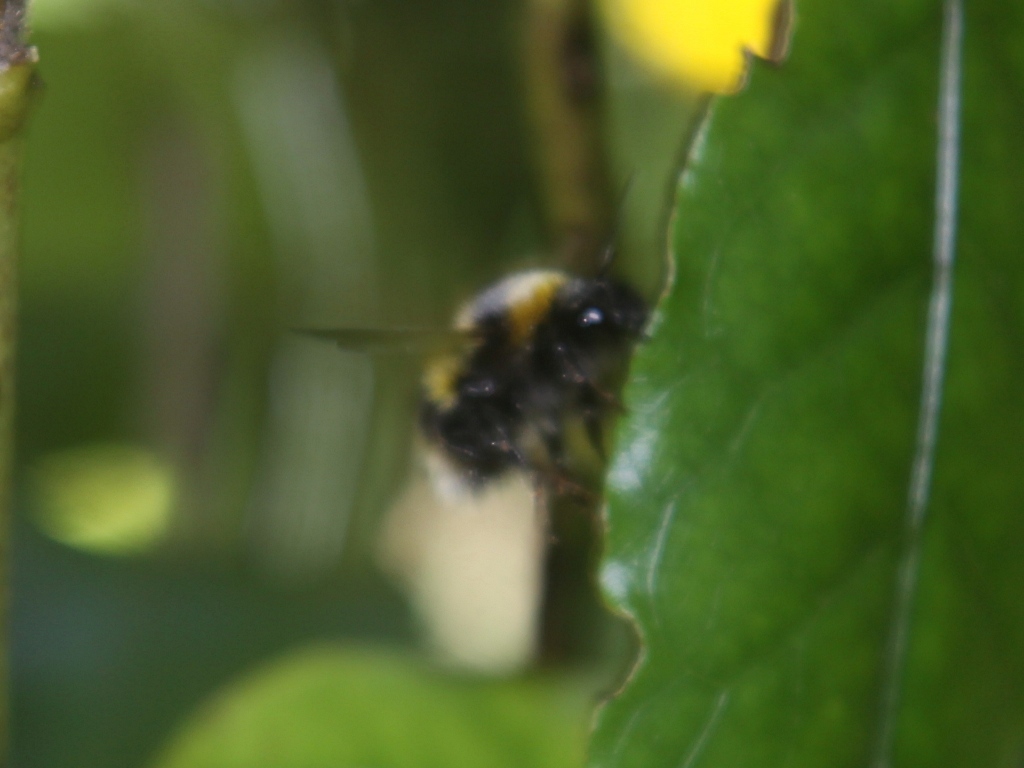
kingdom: Animalia
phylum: Arthropoda
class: Insecta
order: Hymenoptera
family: Apidae
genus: Megabombus
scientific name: Megabombus
